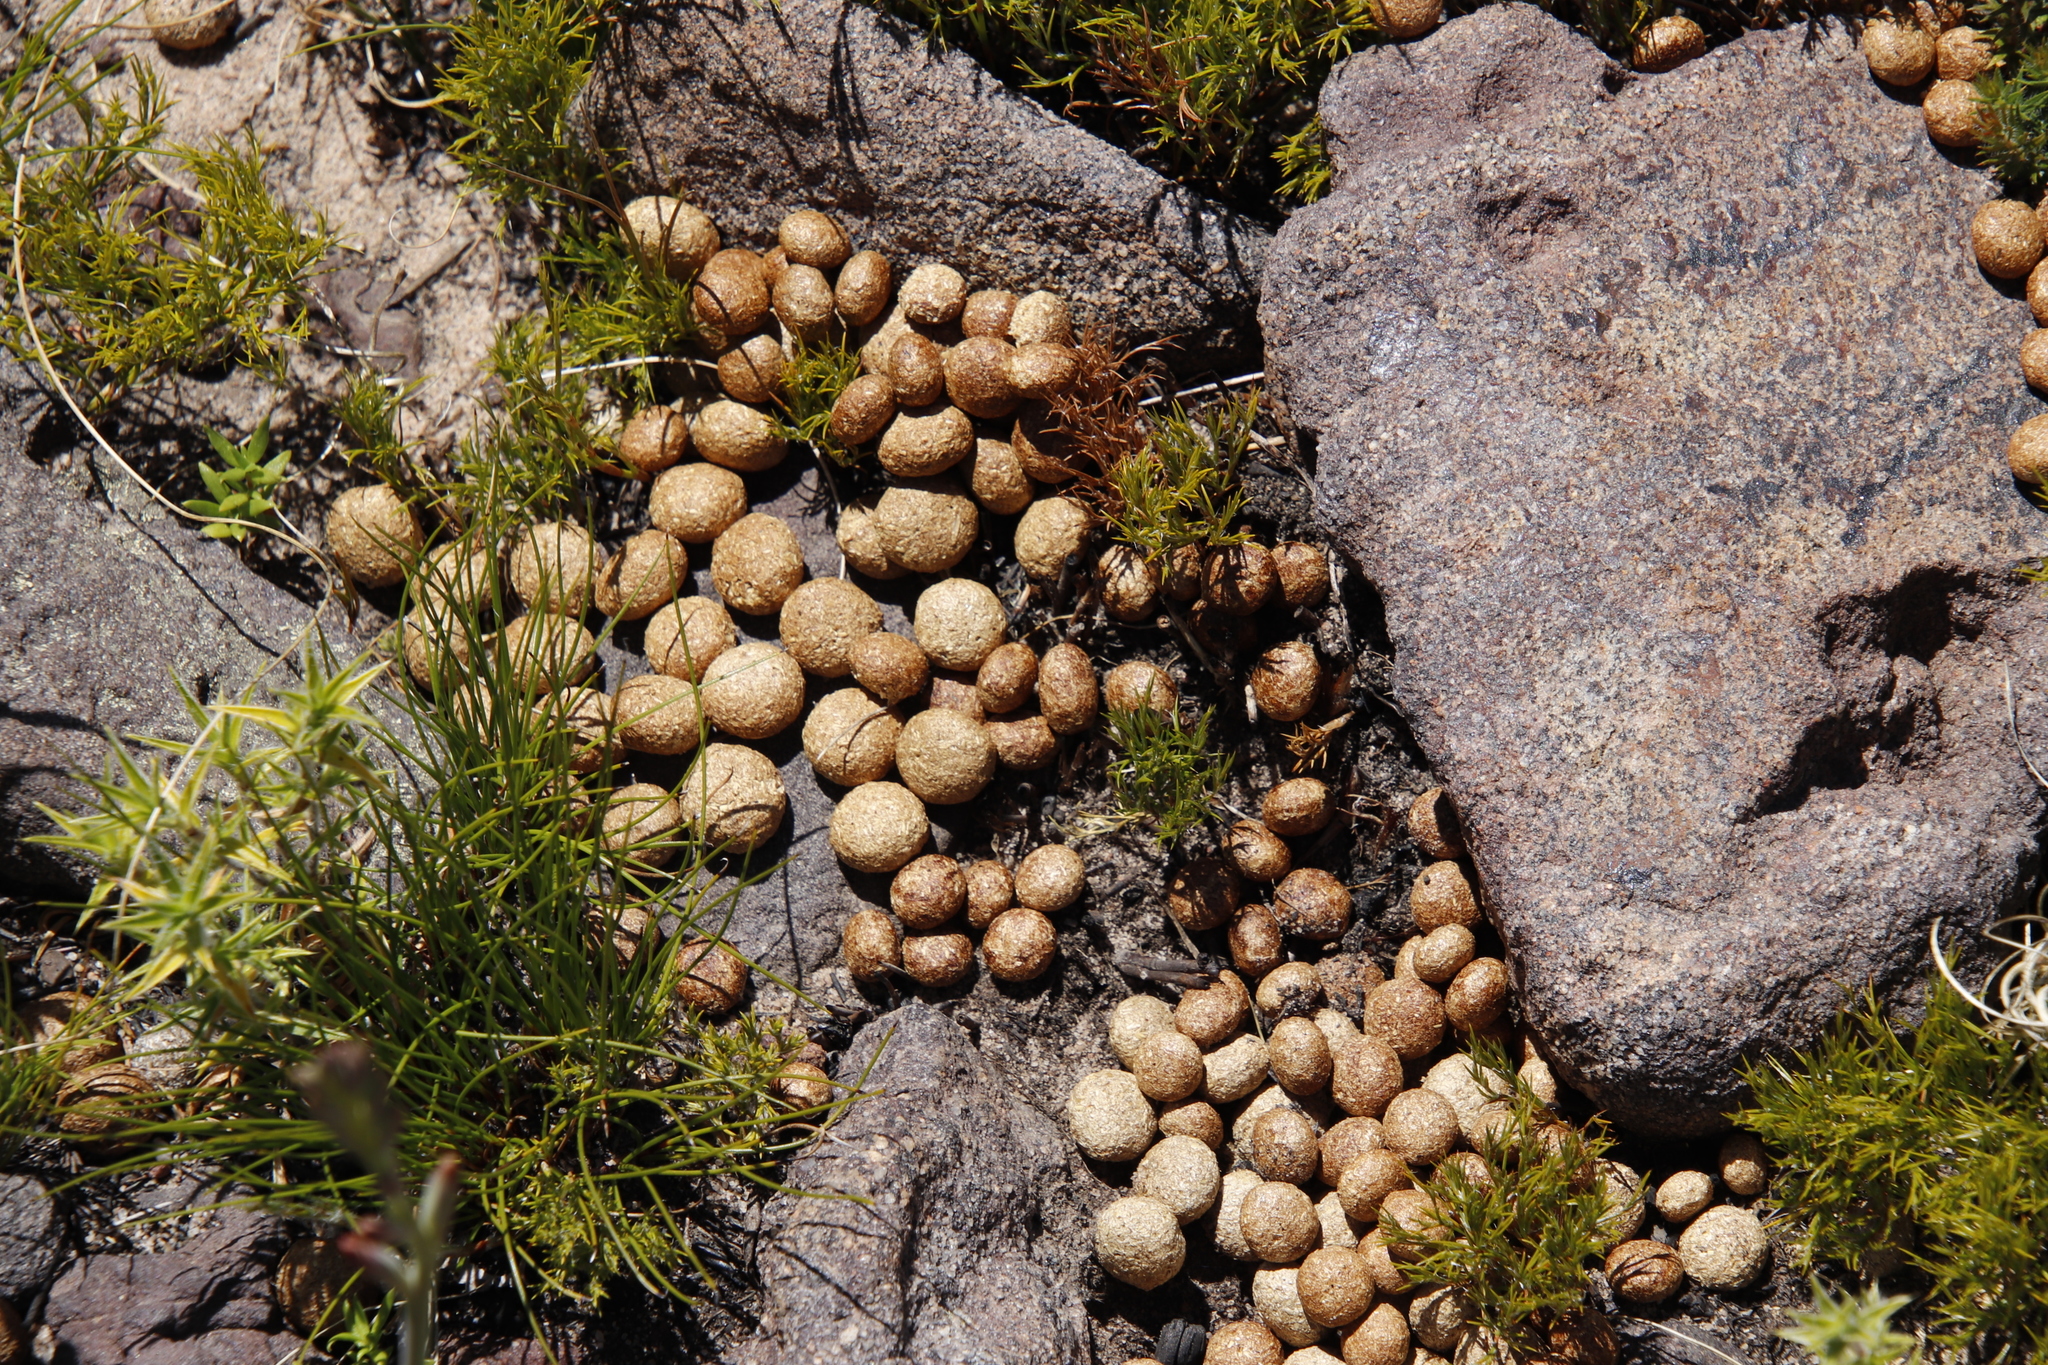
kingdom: Animalia
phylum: Chordata
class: Mammalia
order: Lagomorpha
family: Leporidae
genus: Pronolagus
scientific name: Pronolagus saundersiae
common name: Hewitt's red rock hare
